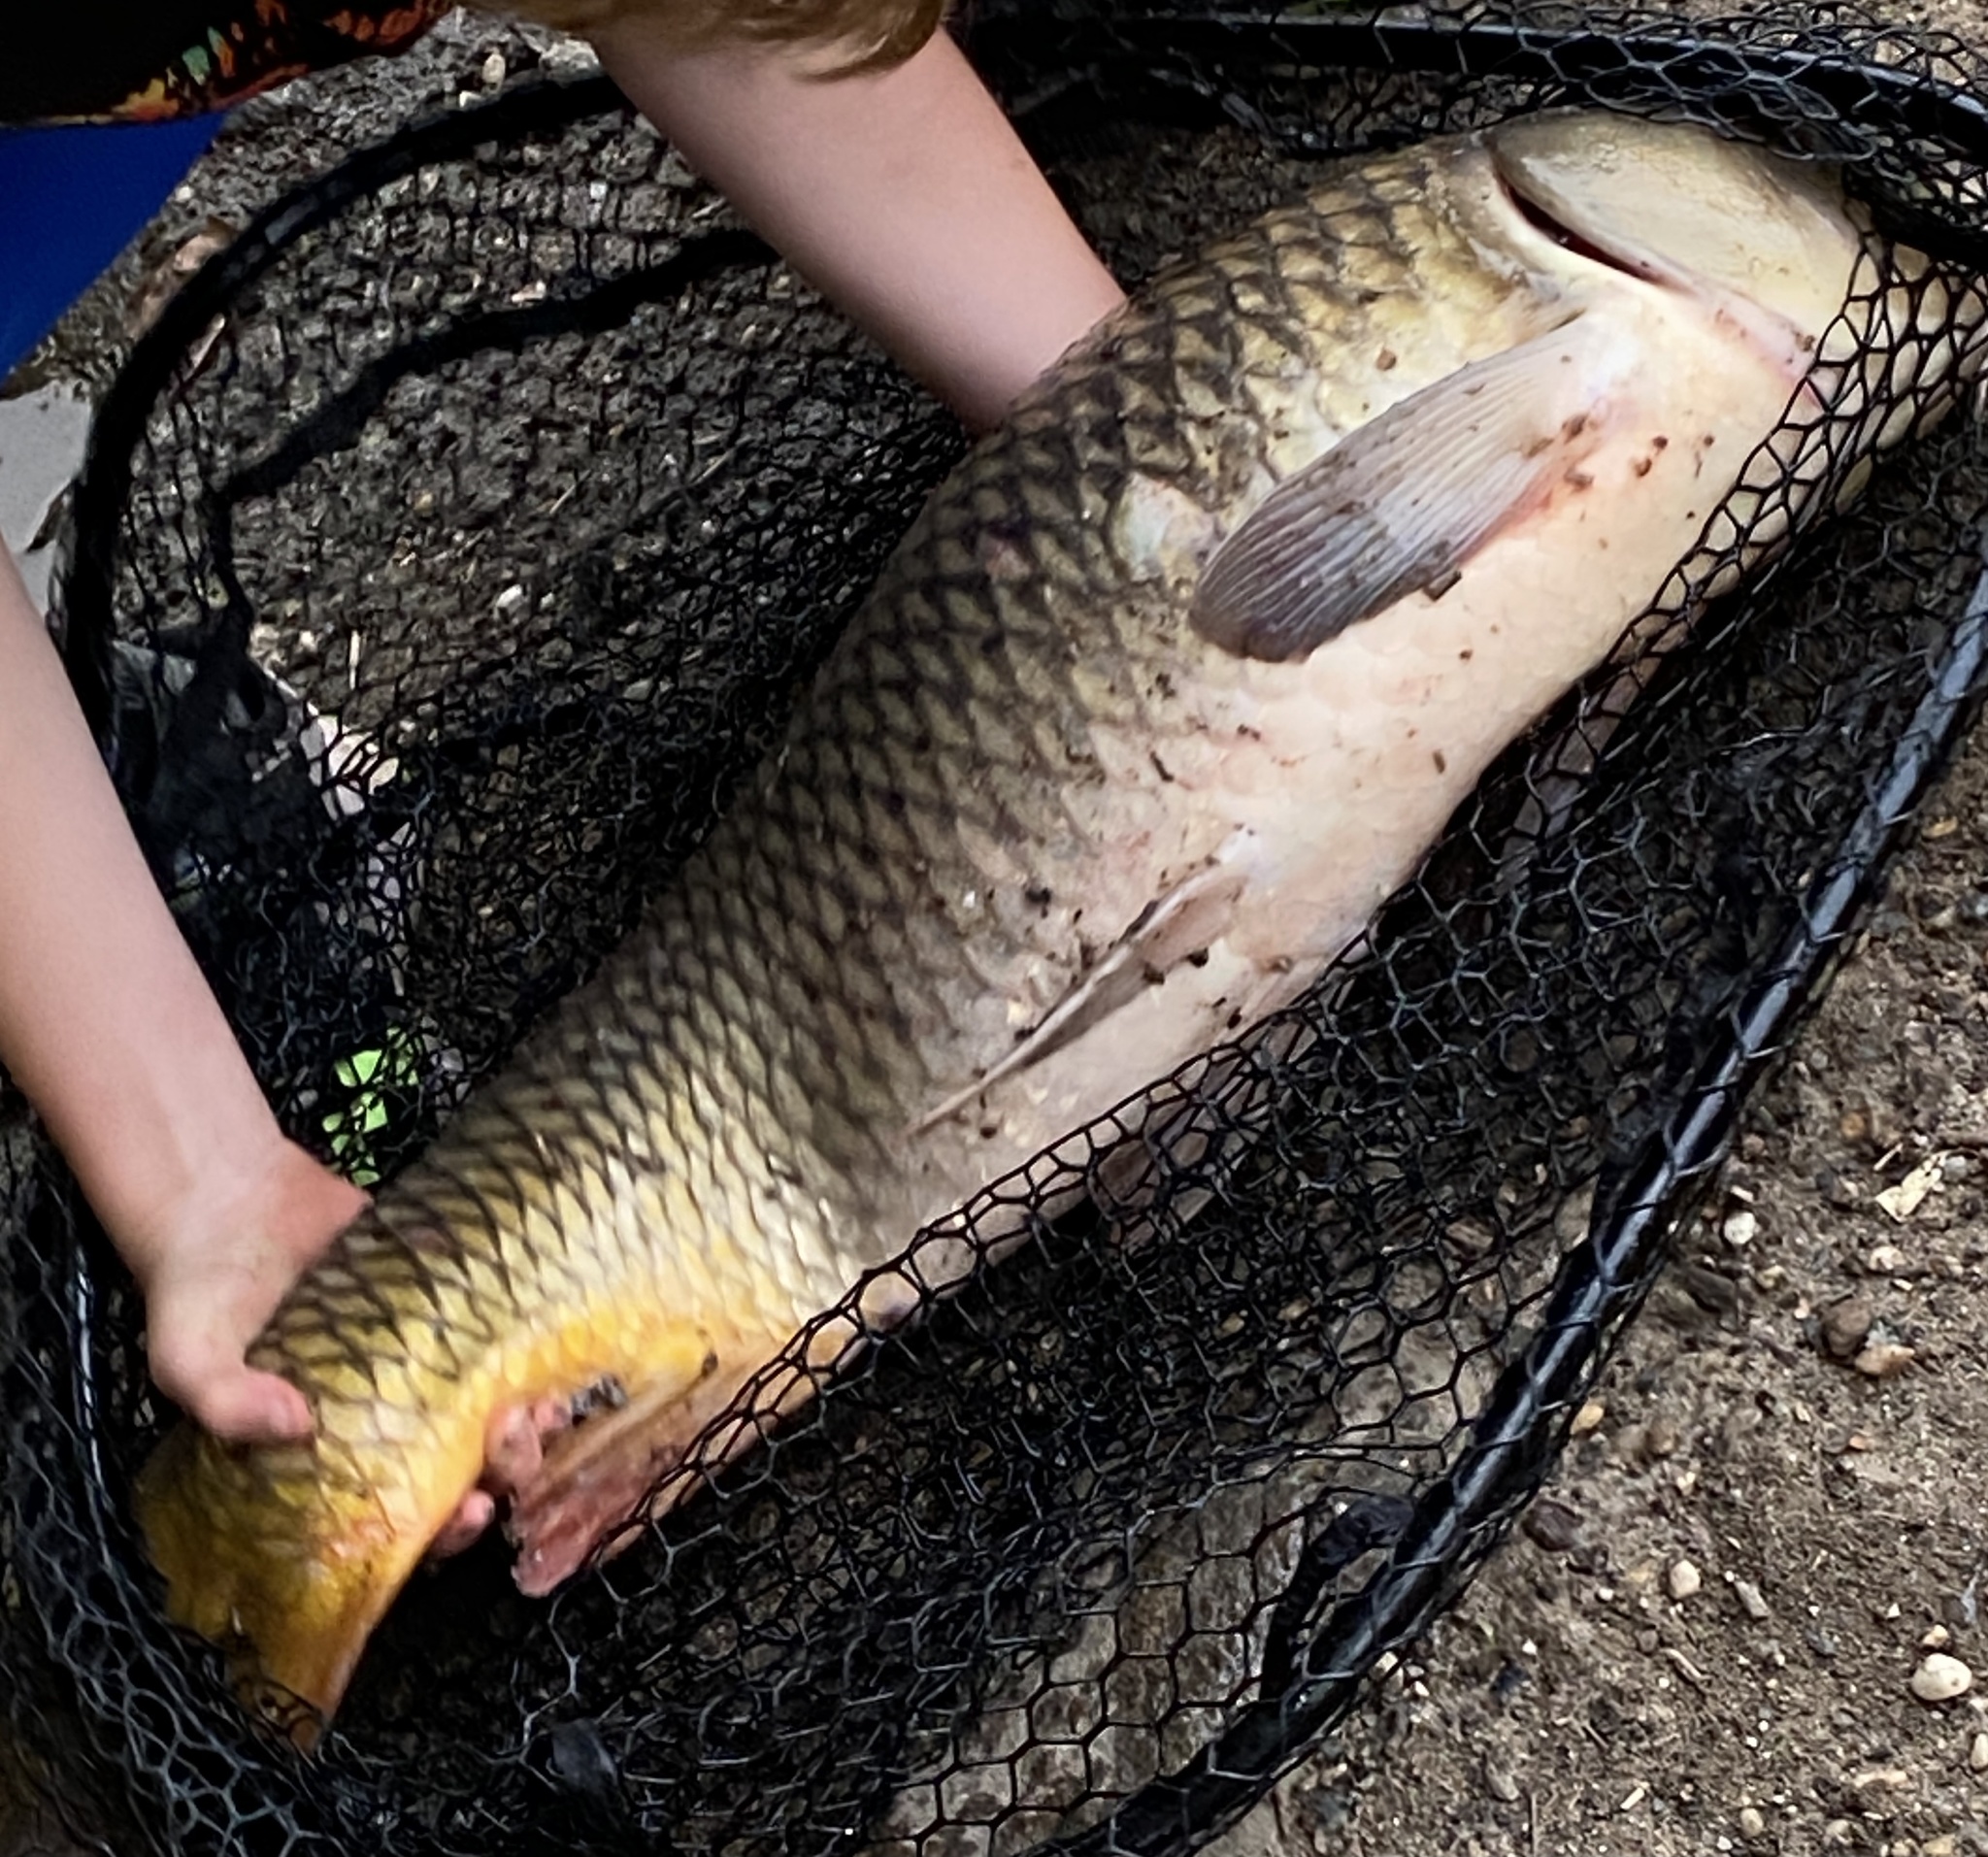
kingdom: Animalia
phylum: Chordata
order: Cypriniformes
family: Cyprinidae
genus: Cyprinus
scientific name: Cyprinus carpio
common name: Common carp
